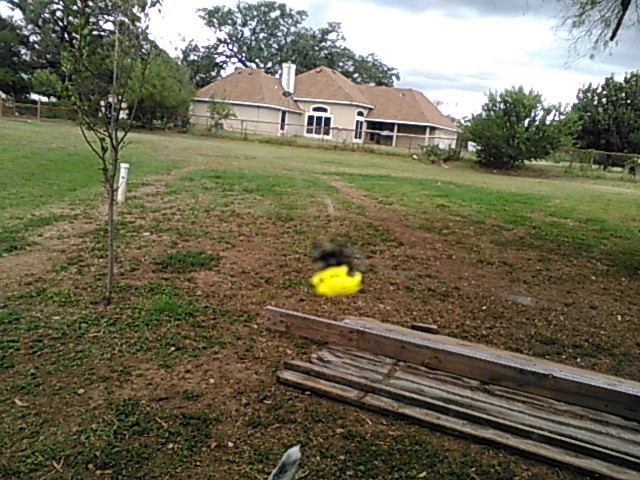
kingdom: Animalia
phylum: Arthropoda
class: Arachnida
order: Araneae
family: Araneidae
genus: Gasteracantha
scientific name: Gasteracantha cancriformis
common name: Orb weavers
